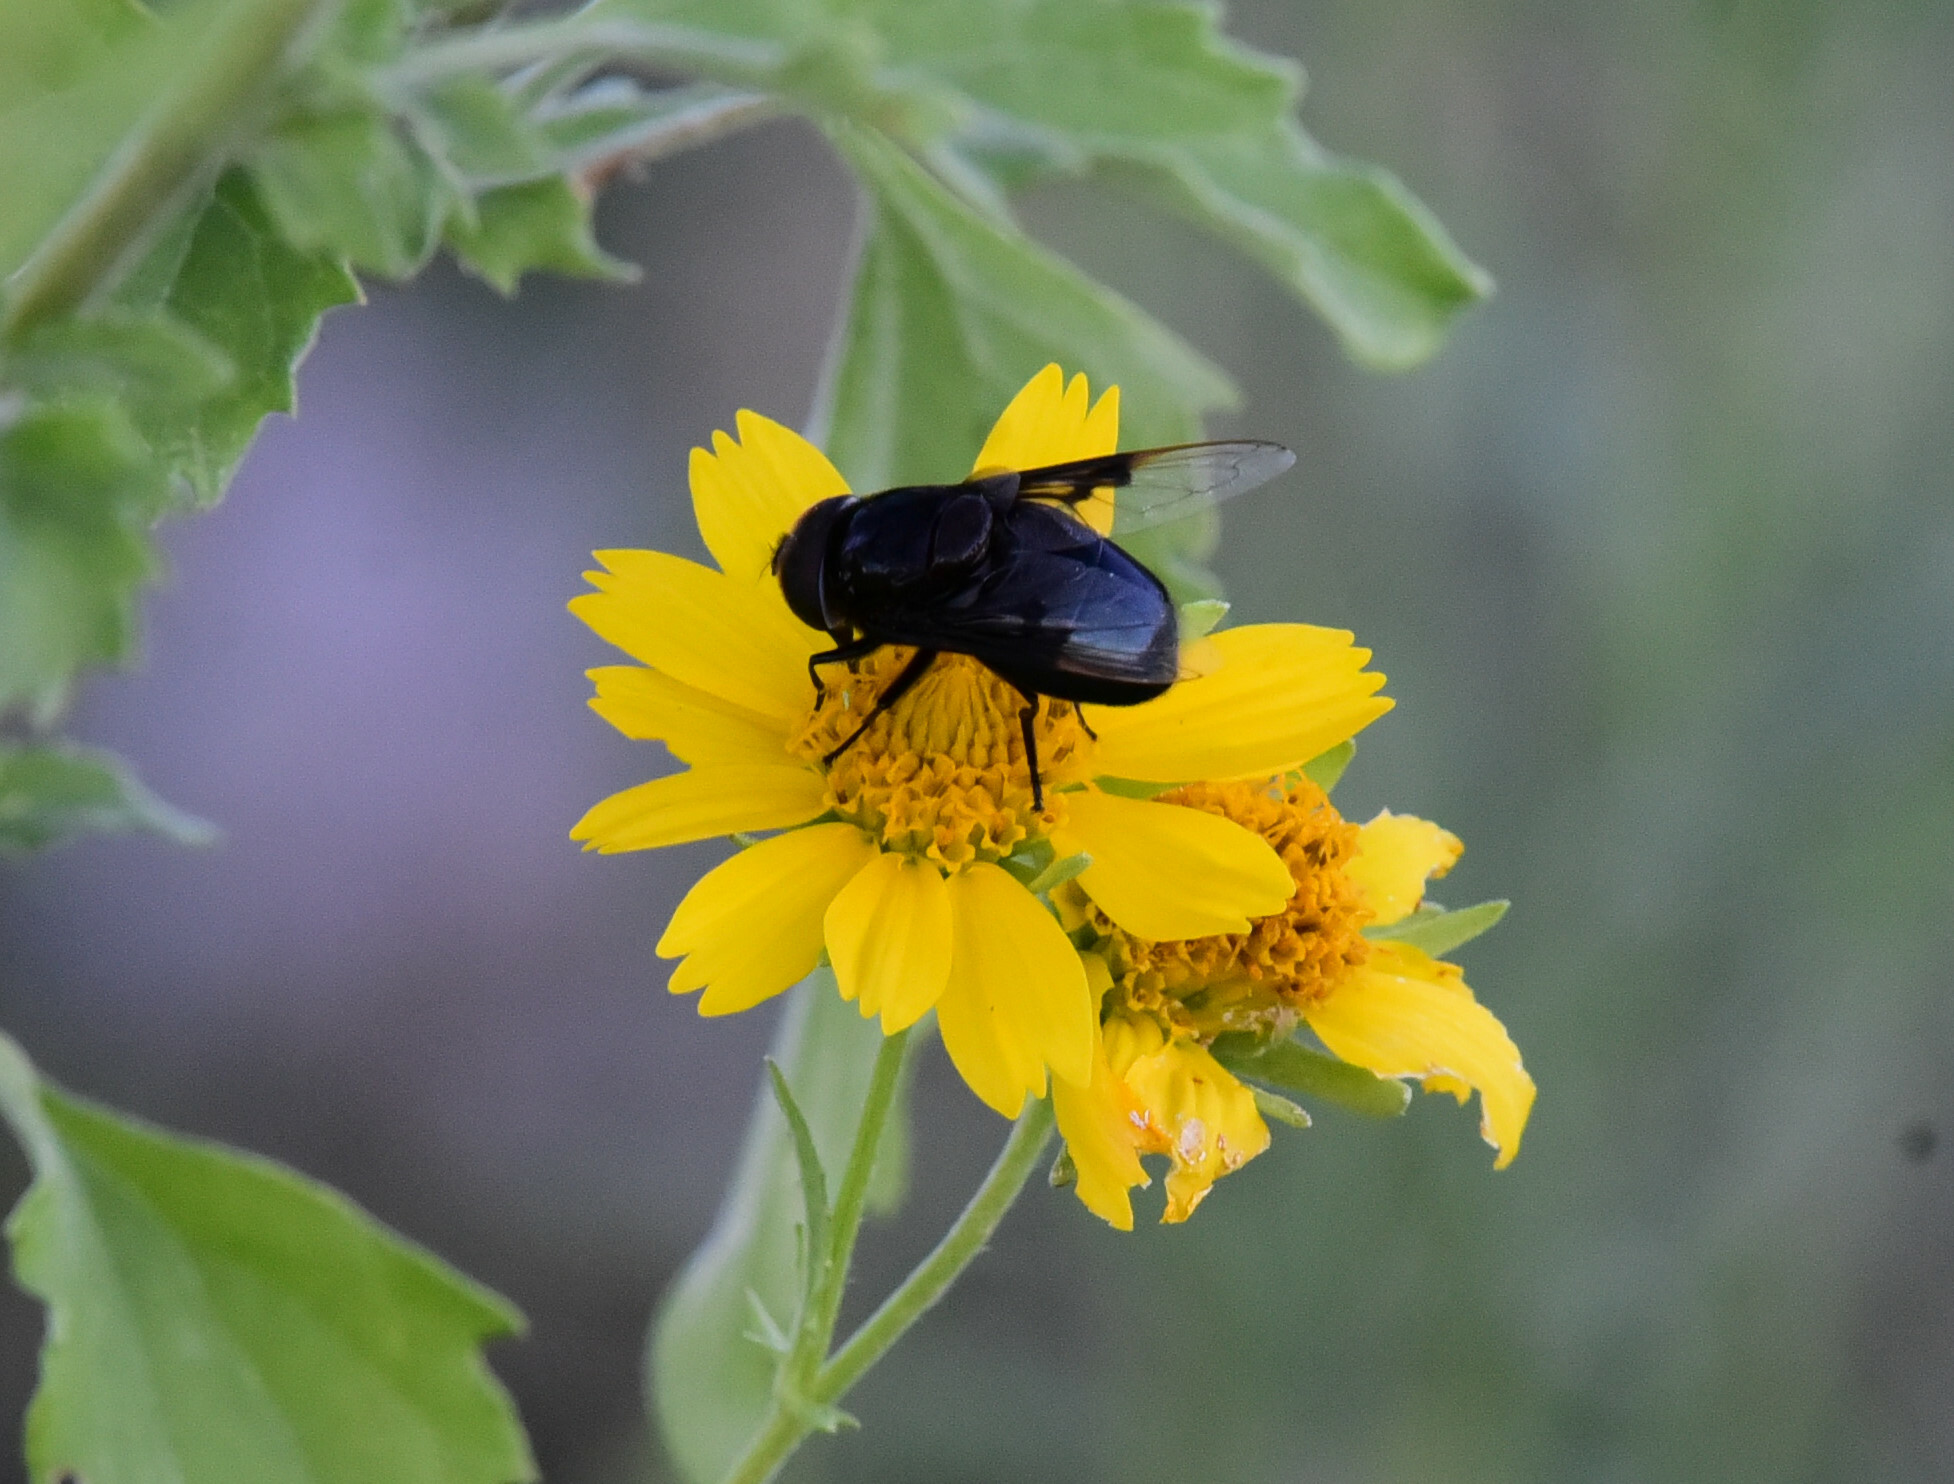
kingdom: Animalia
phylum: Arthropoda
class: Insecta
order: Diptera
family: Syrphidae
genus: Copestylum
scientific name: Copestylum mexicanum
